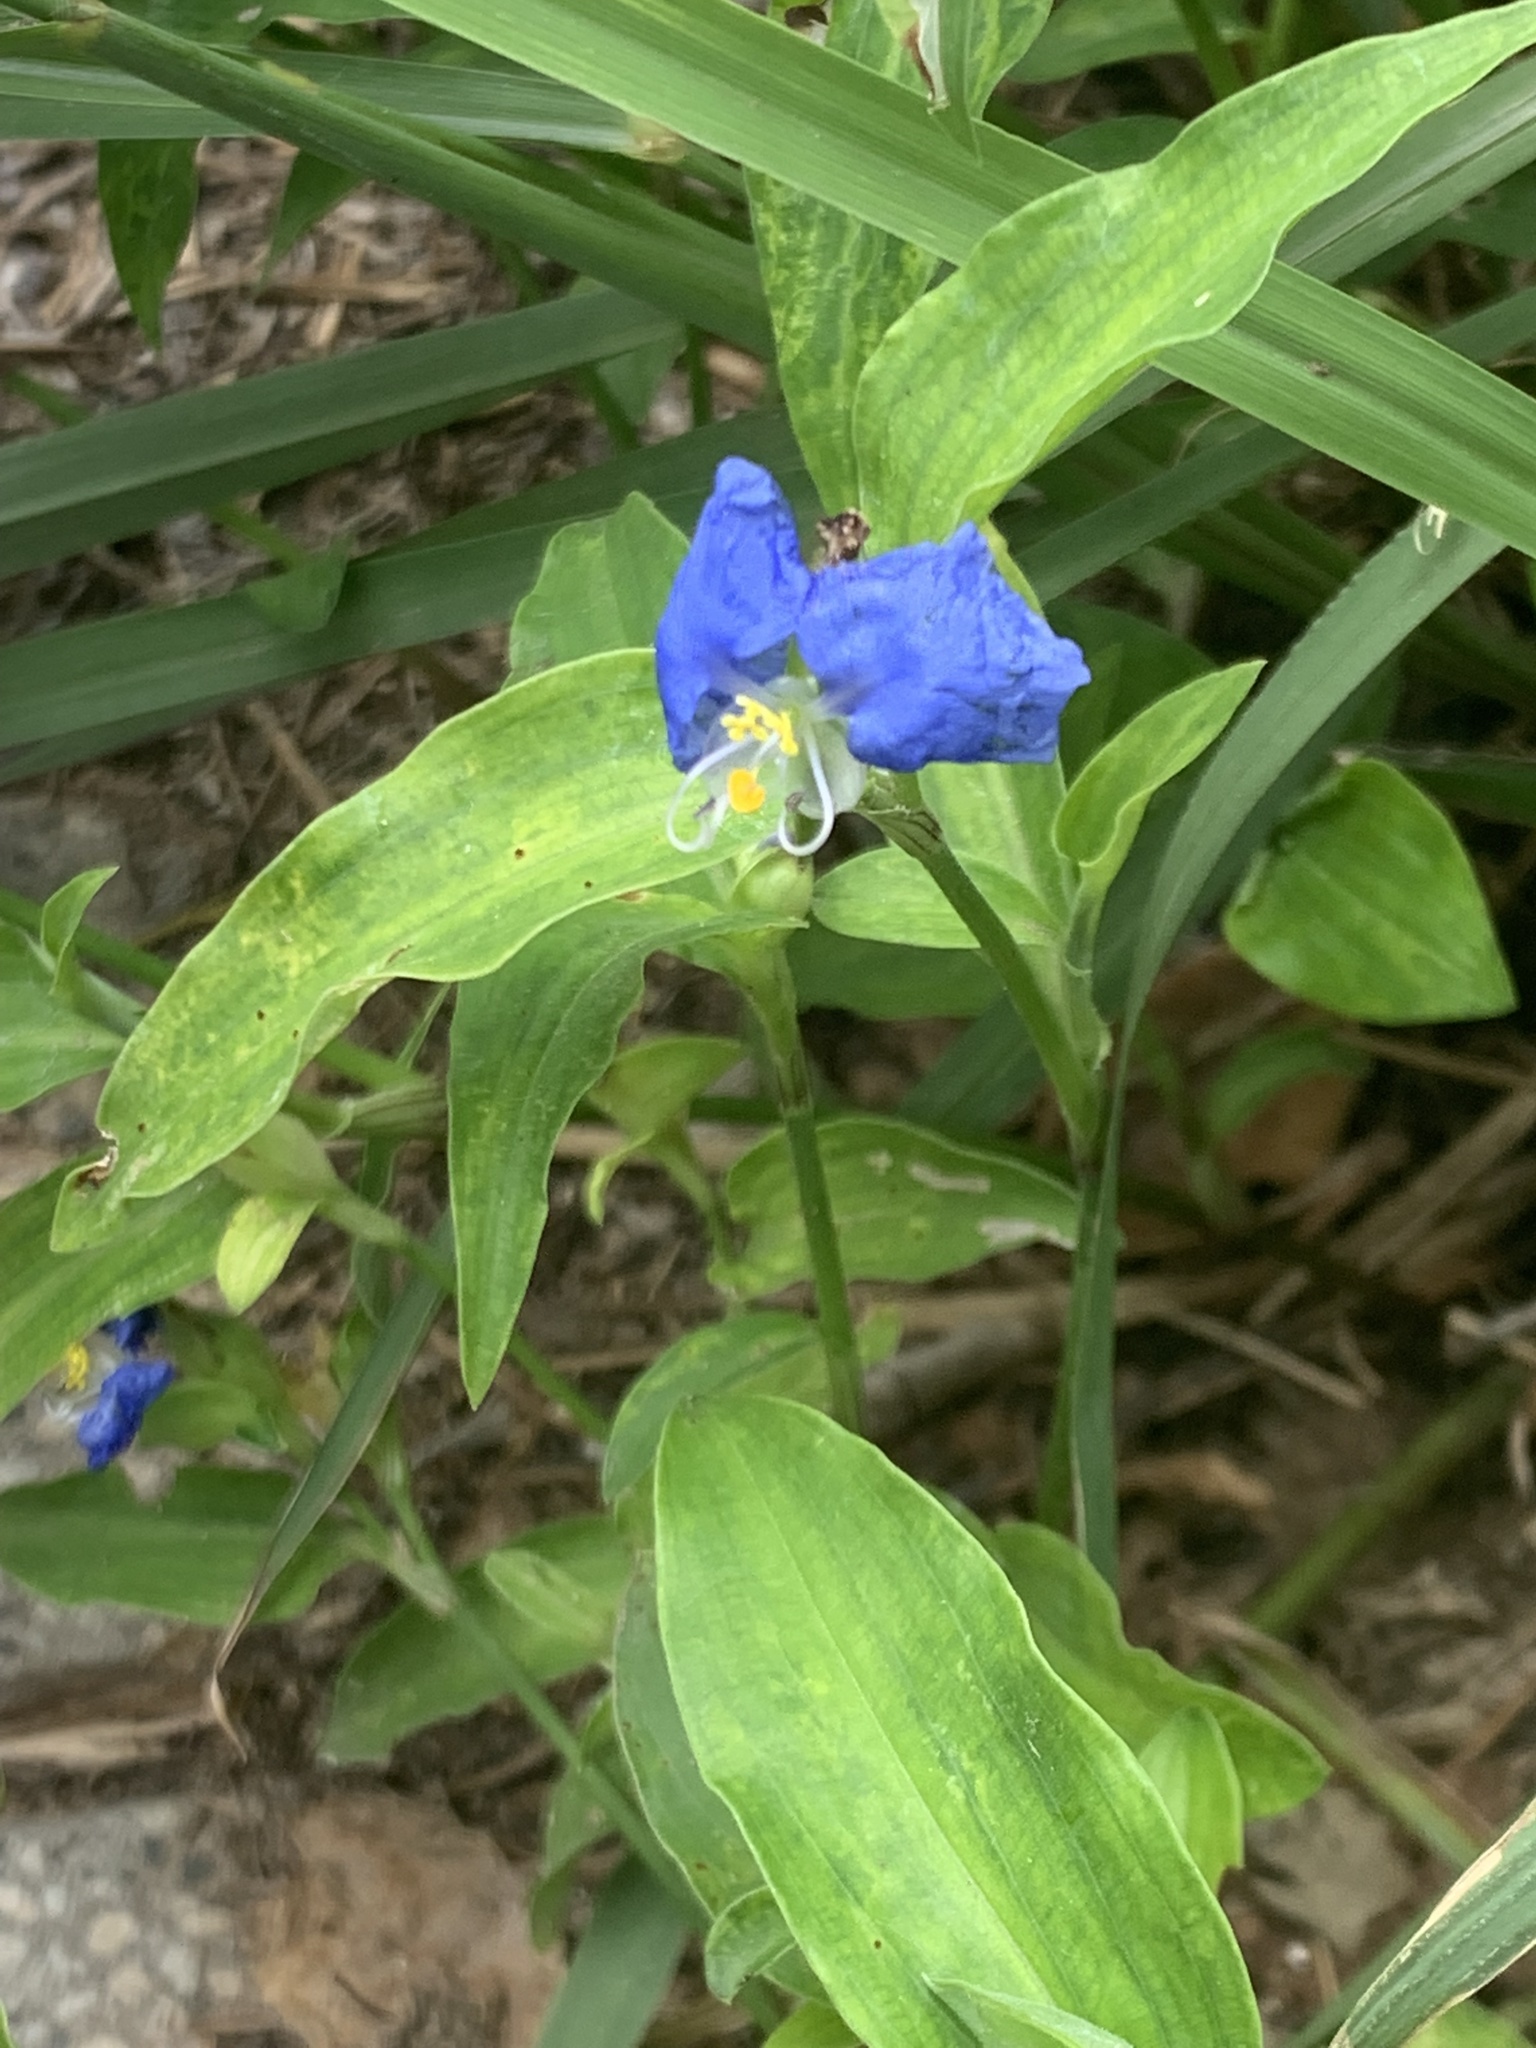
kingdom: Plantae
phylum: Tracheophyta
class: Liliopsida
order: Commelinales
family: Commelinaceae
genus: Commelina
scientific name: Commelina erecta
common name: Blousel blommetjie
